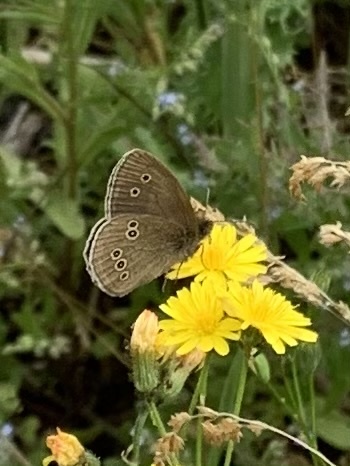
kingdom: Animalia
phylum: Arthropoda
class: Insecta
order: Lepidoptera
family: Nymphalidae
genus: Aphantopus
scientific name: Aphantopus hyperantus
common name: Ringlet
